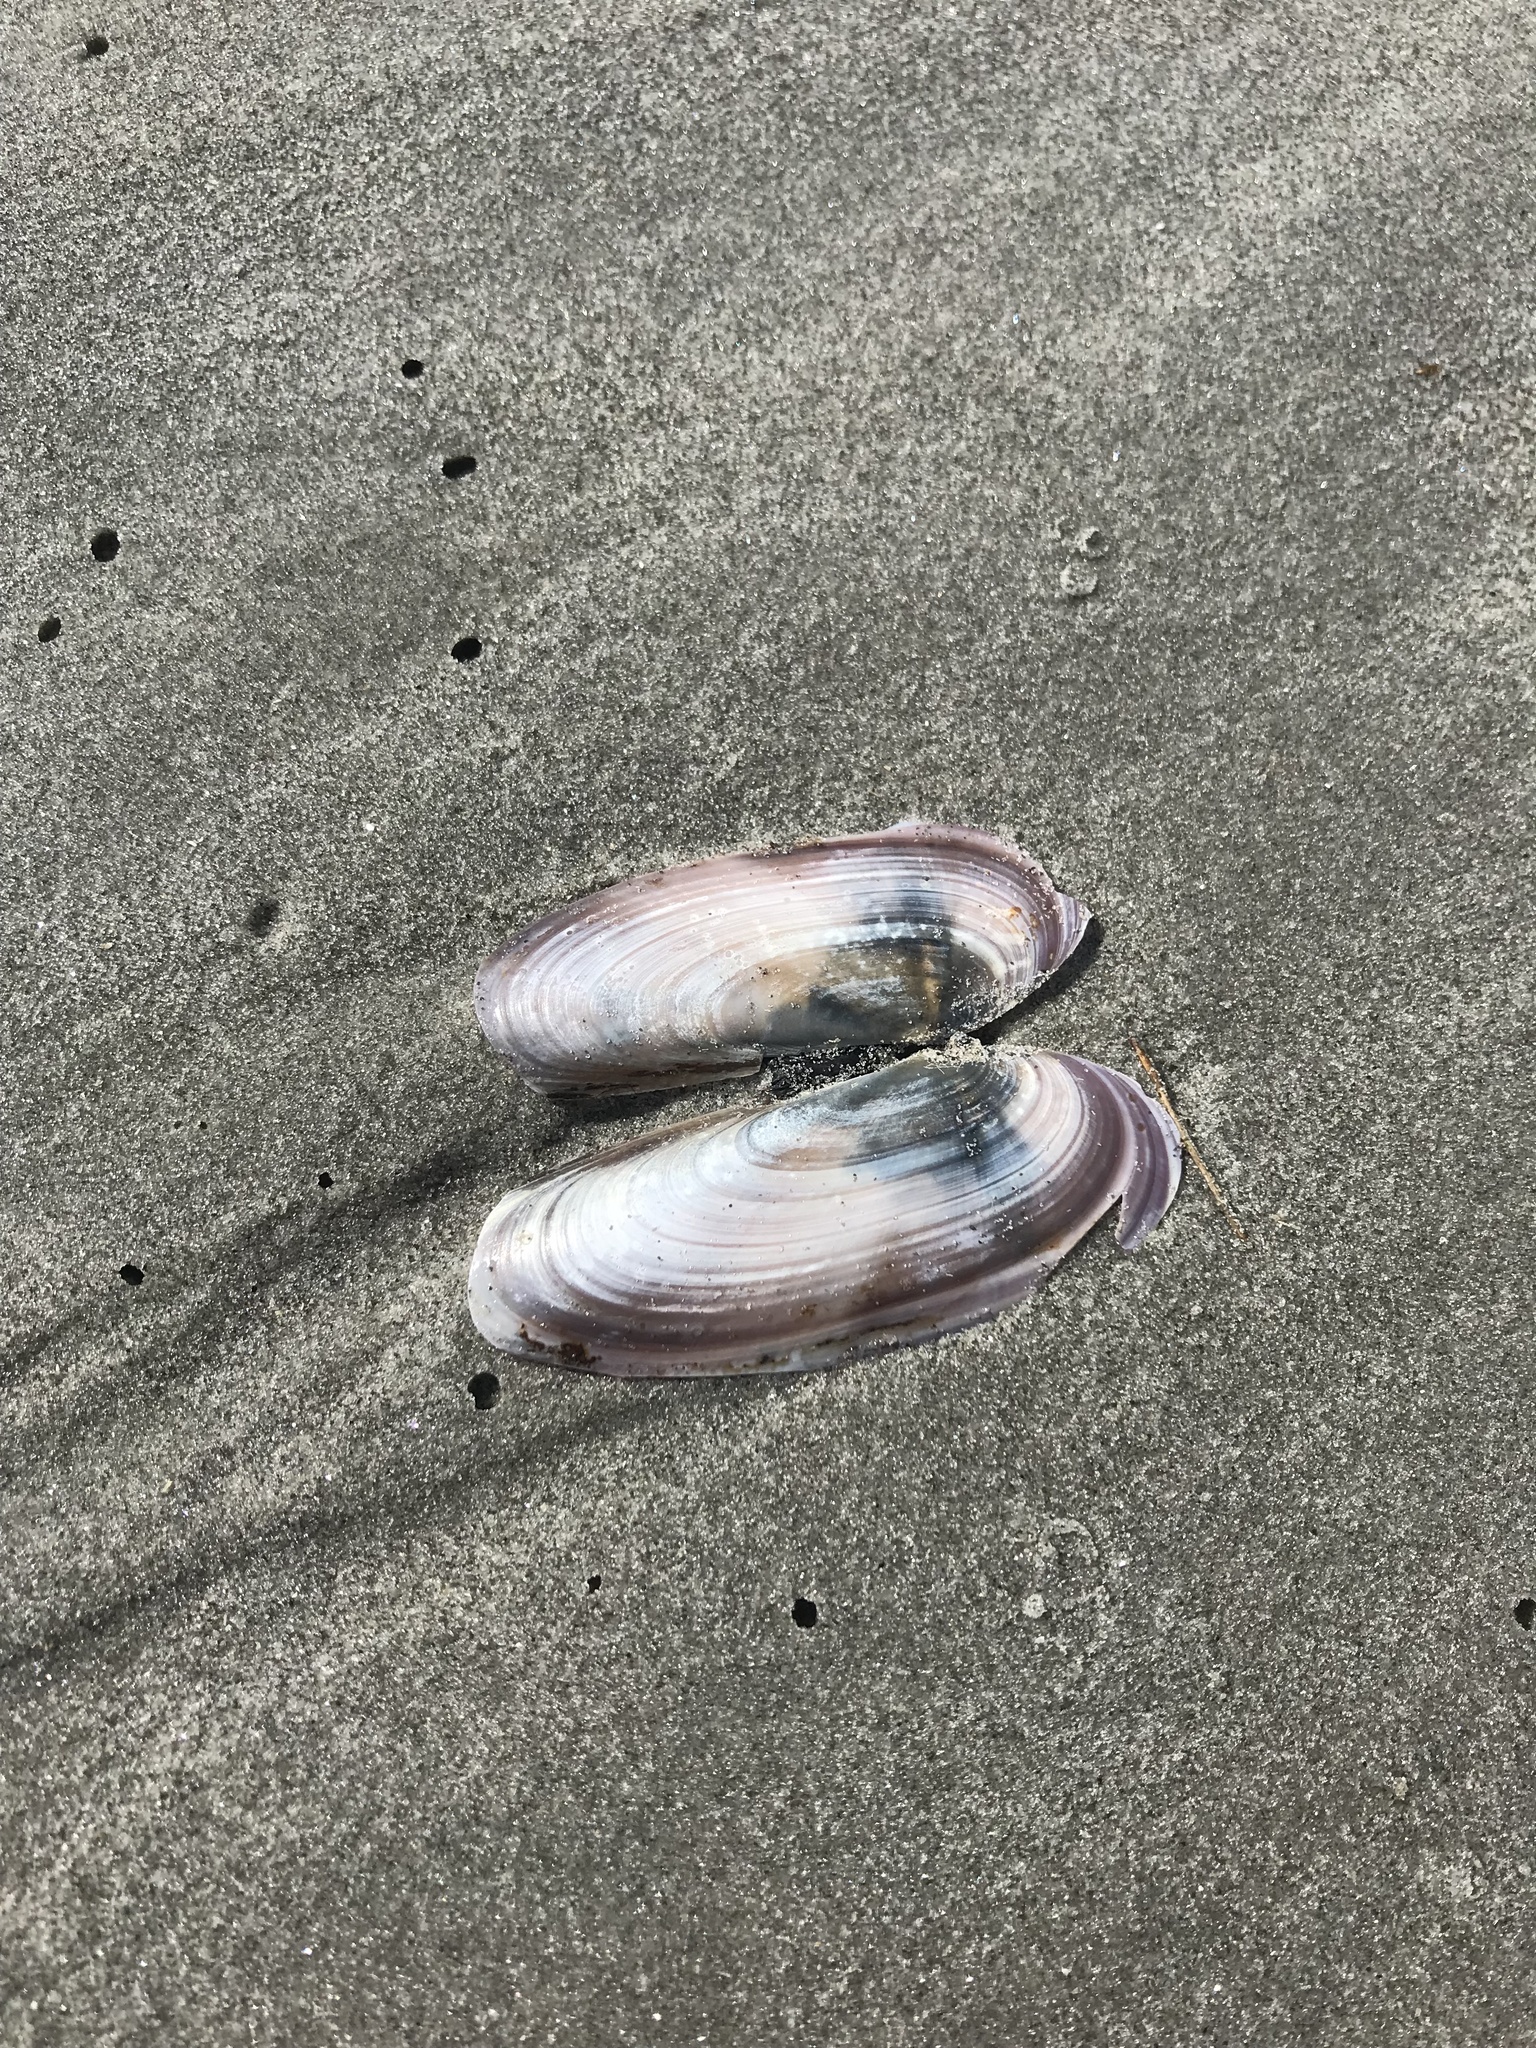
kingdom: Animalia
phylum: Mollusca
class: Bivalvia
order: Adapedonta
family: Pharidae
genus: Siliqua
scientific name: Siliqua costata
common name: Atlantic razor
